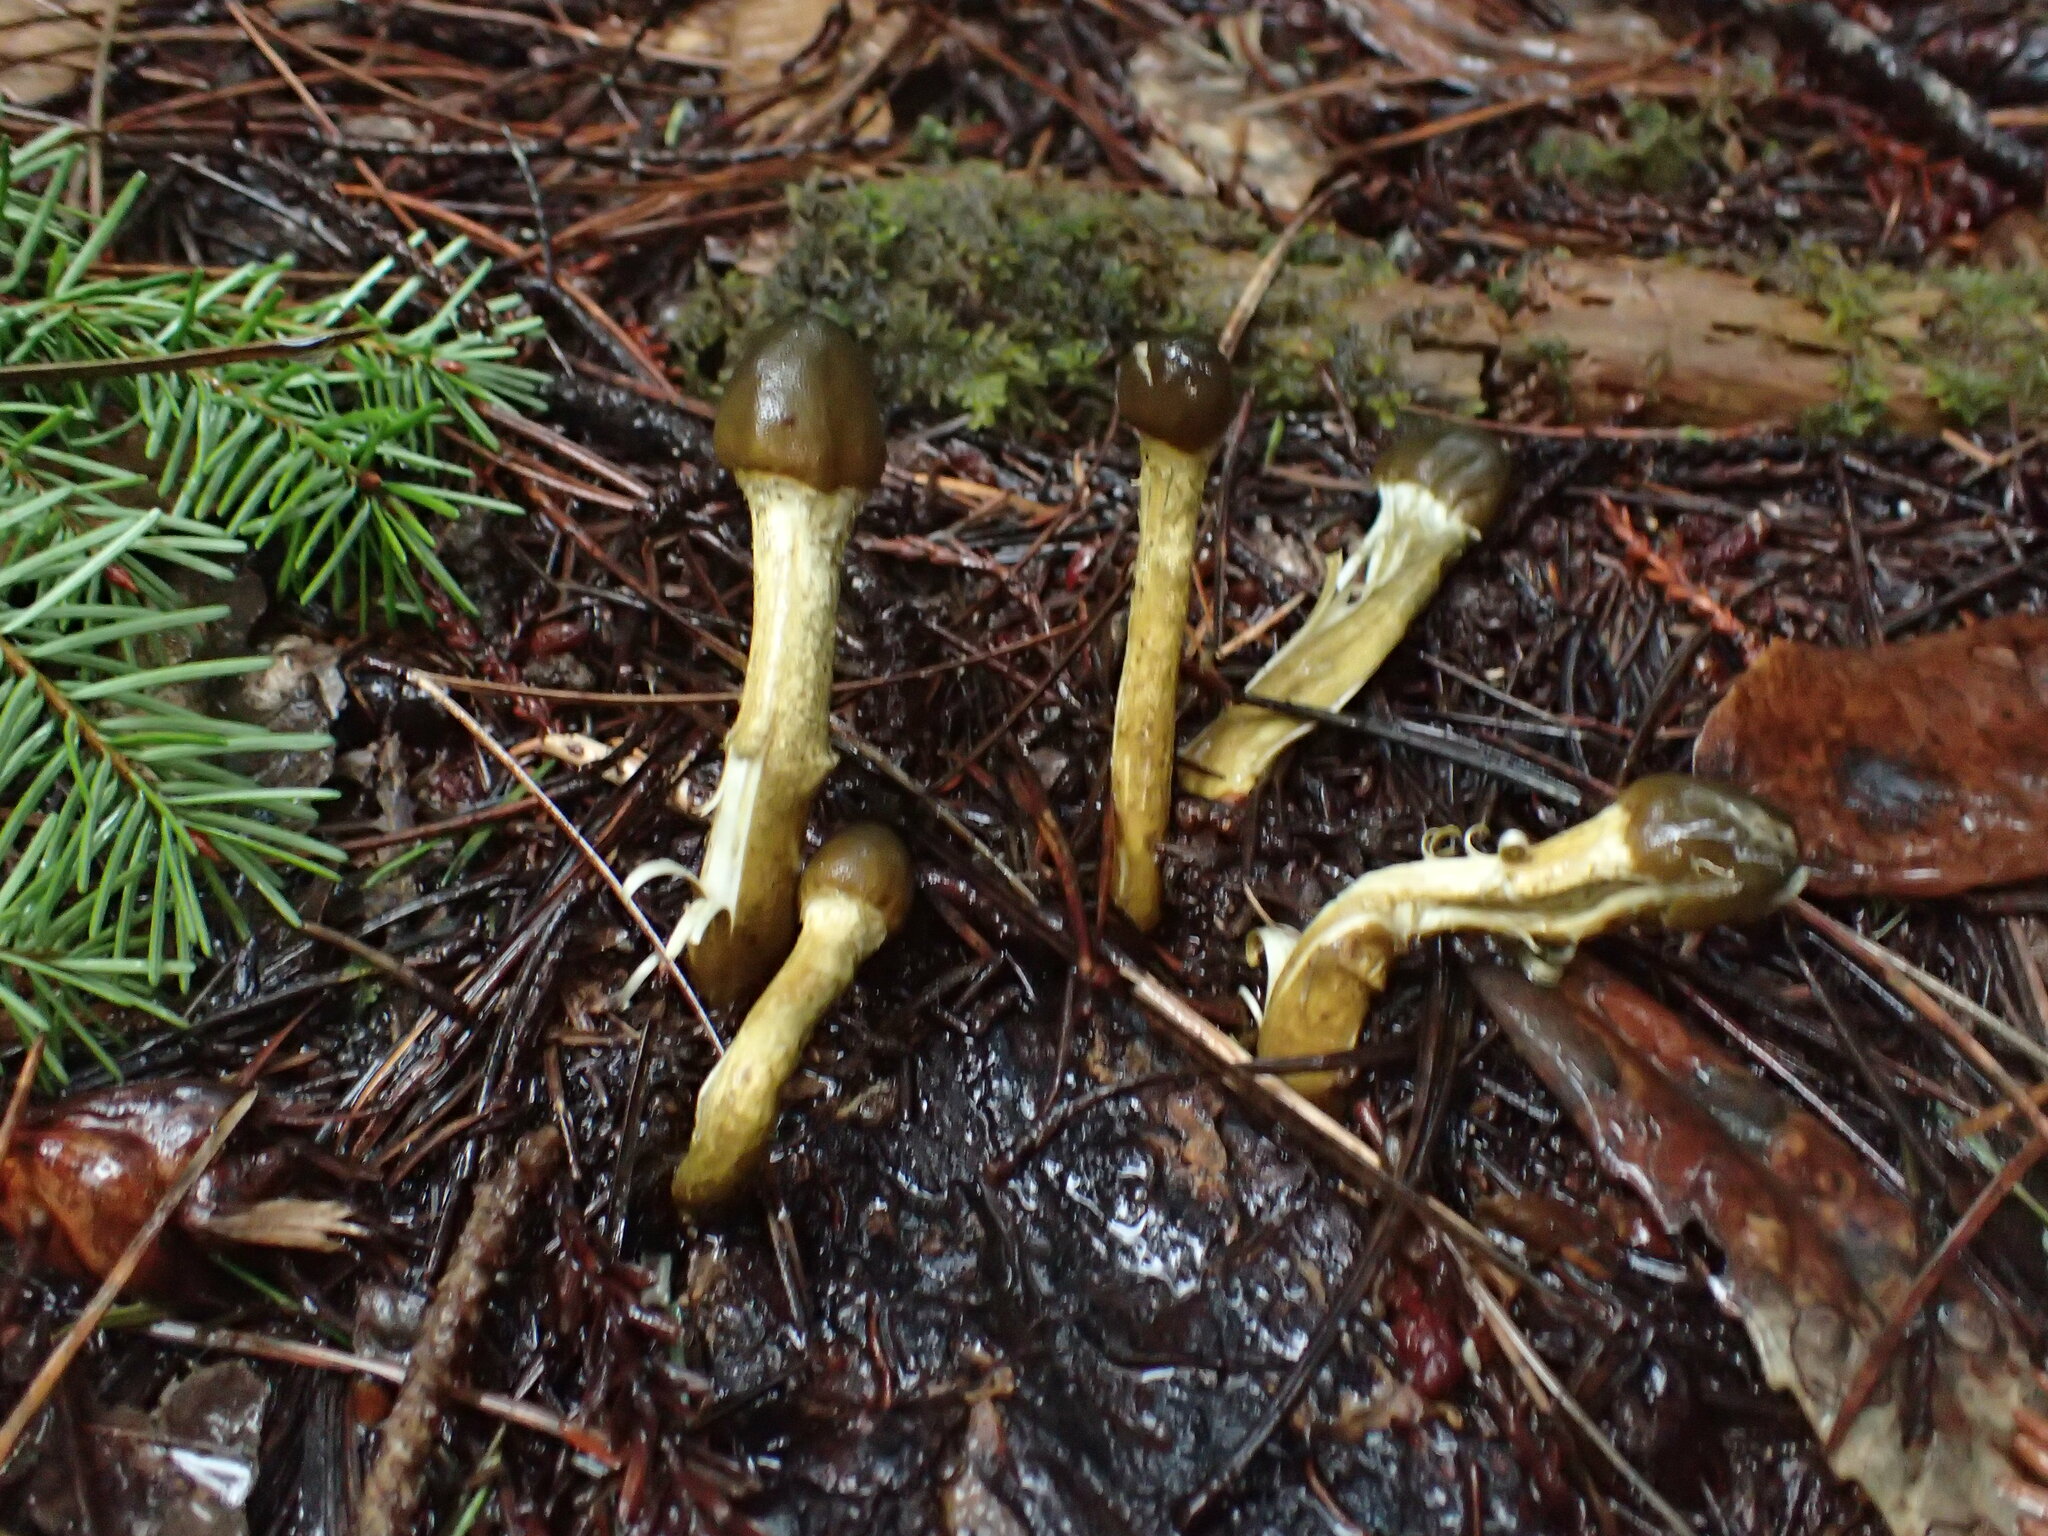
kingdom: Fungi
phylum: Ascomycota
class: Sordariomycetes
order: Hypocreales
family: Ophiocordycipitaceae
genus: Tolypocladium
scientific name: Tolypocladium capitatum
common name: Capitate truffleclub
